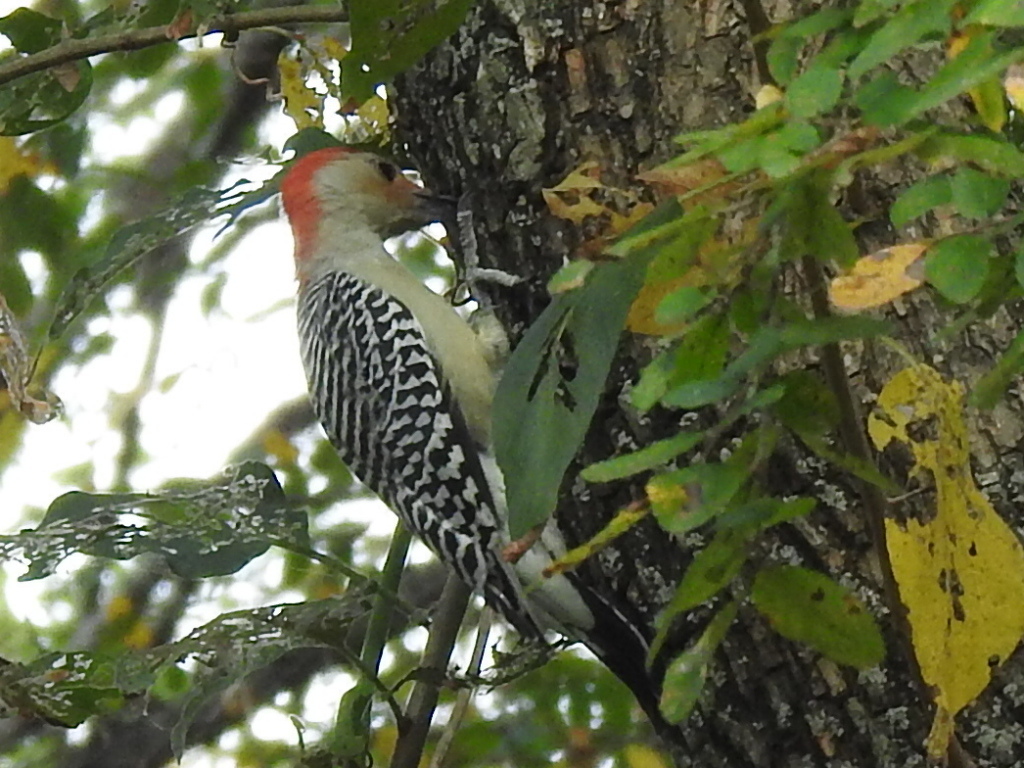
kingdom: Animalia
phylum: Chordata
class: Aves
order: Piciformes
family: Picidae
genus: Melanerpes
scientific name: Melanerpes carolinus
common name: Red-bellied woodpecker
